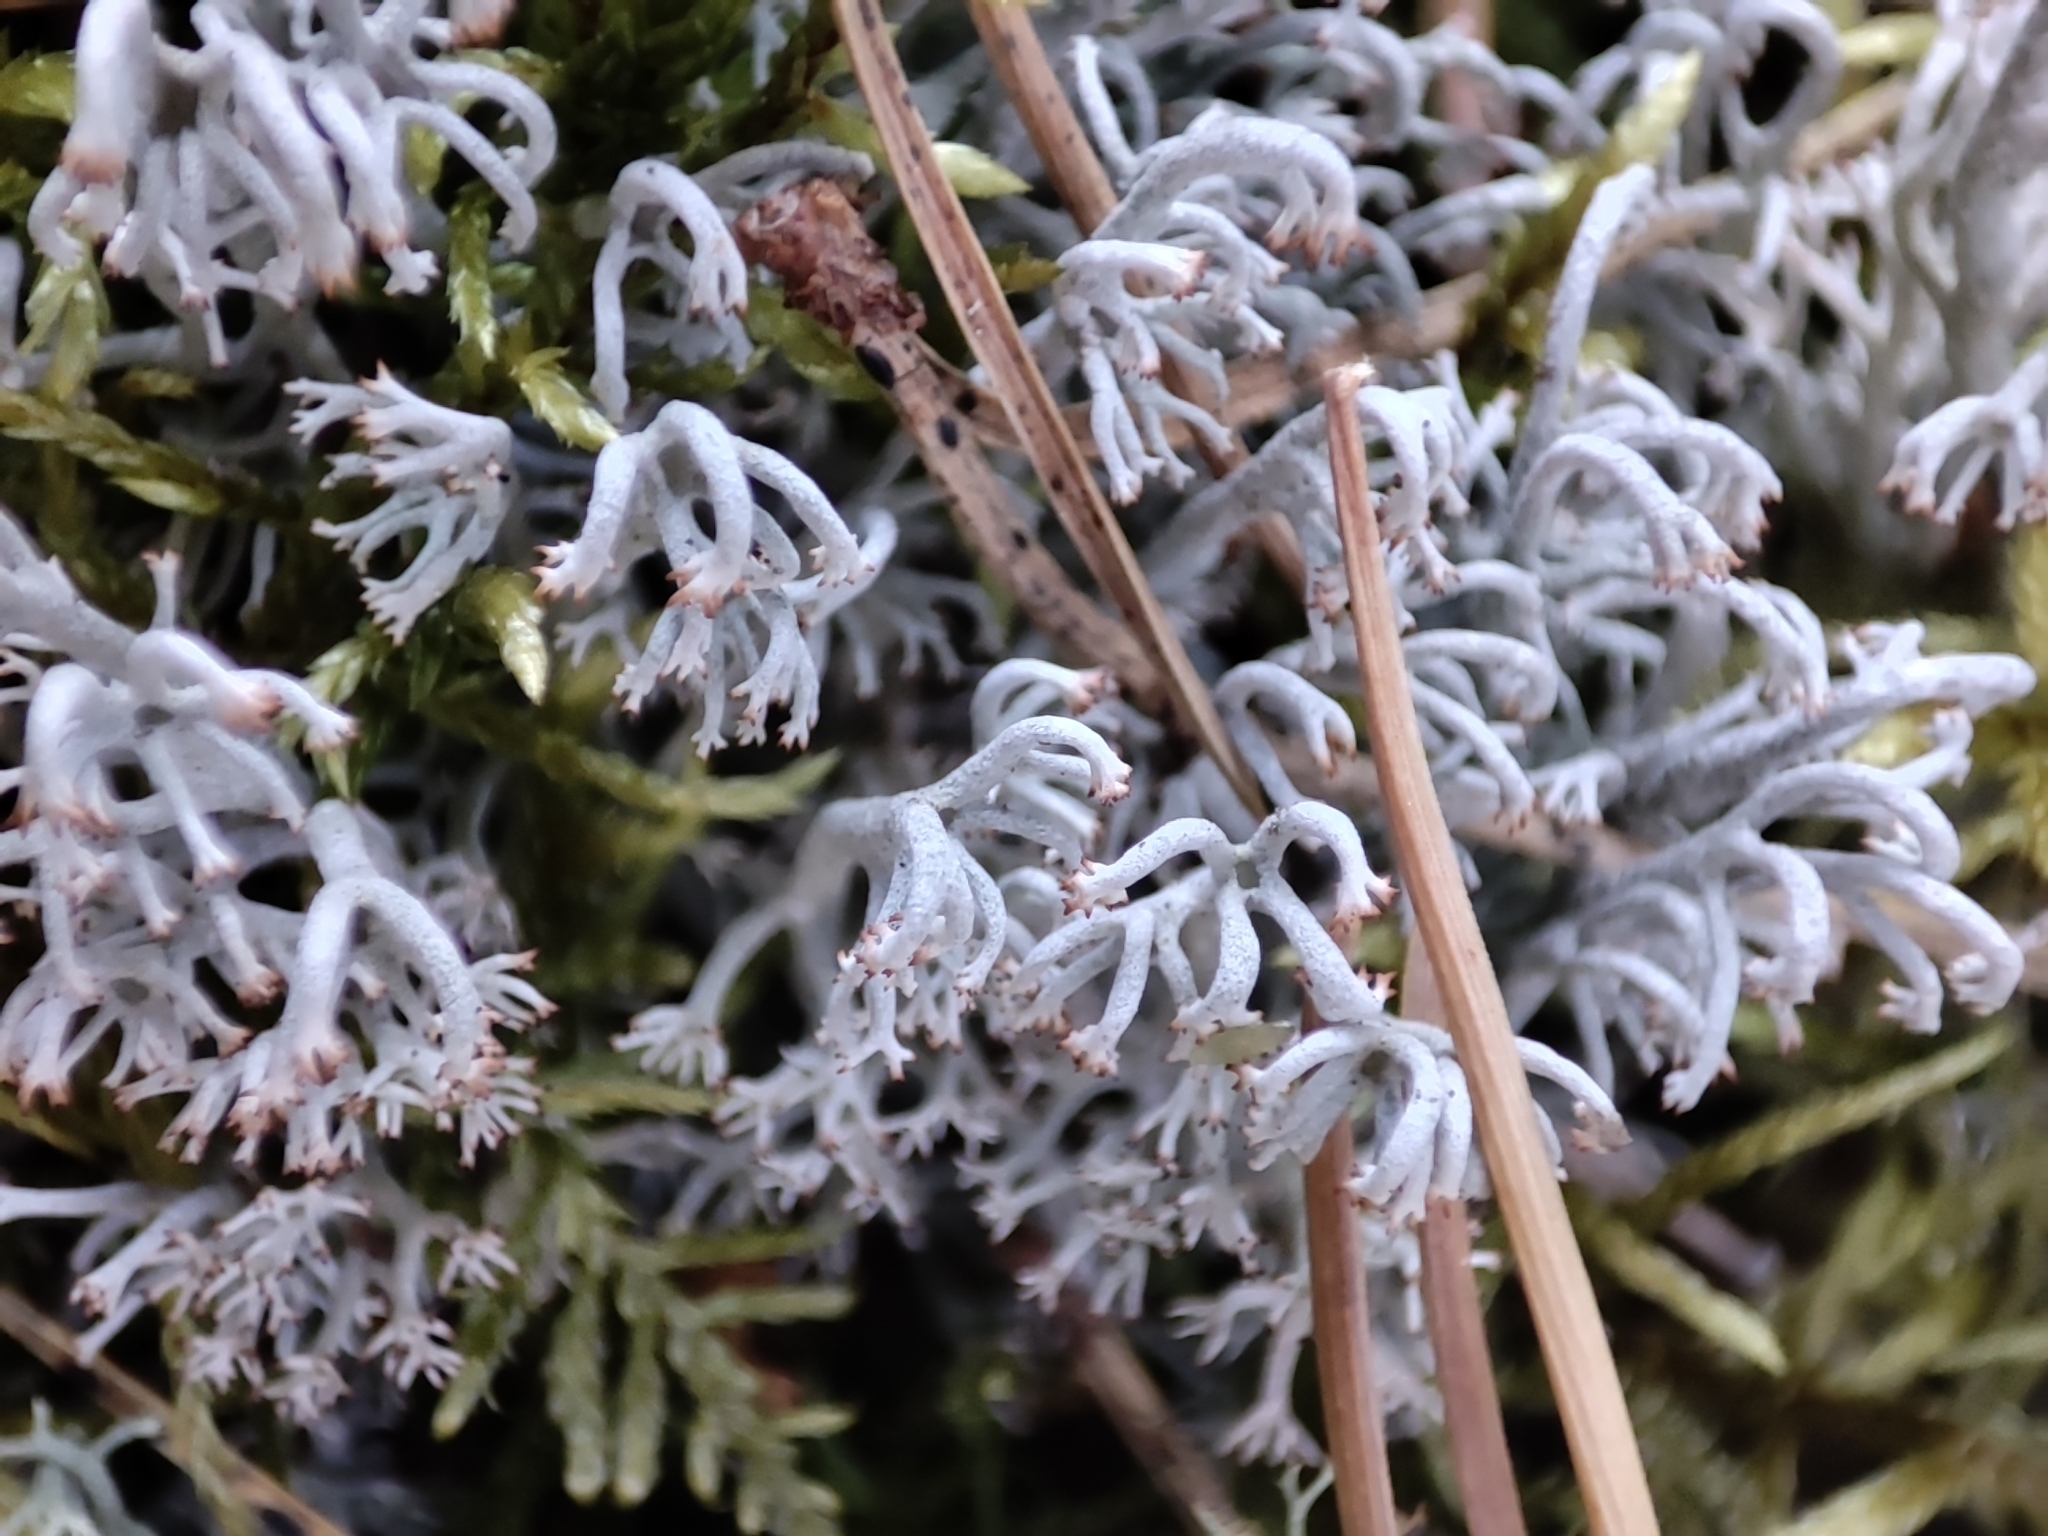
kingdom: Fungi
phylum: Ascomycota
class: Lecanoromycetes
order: Lecanorales
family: Cladoniaceae
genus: Cladonia
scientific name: Cladonia rangiferina
